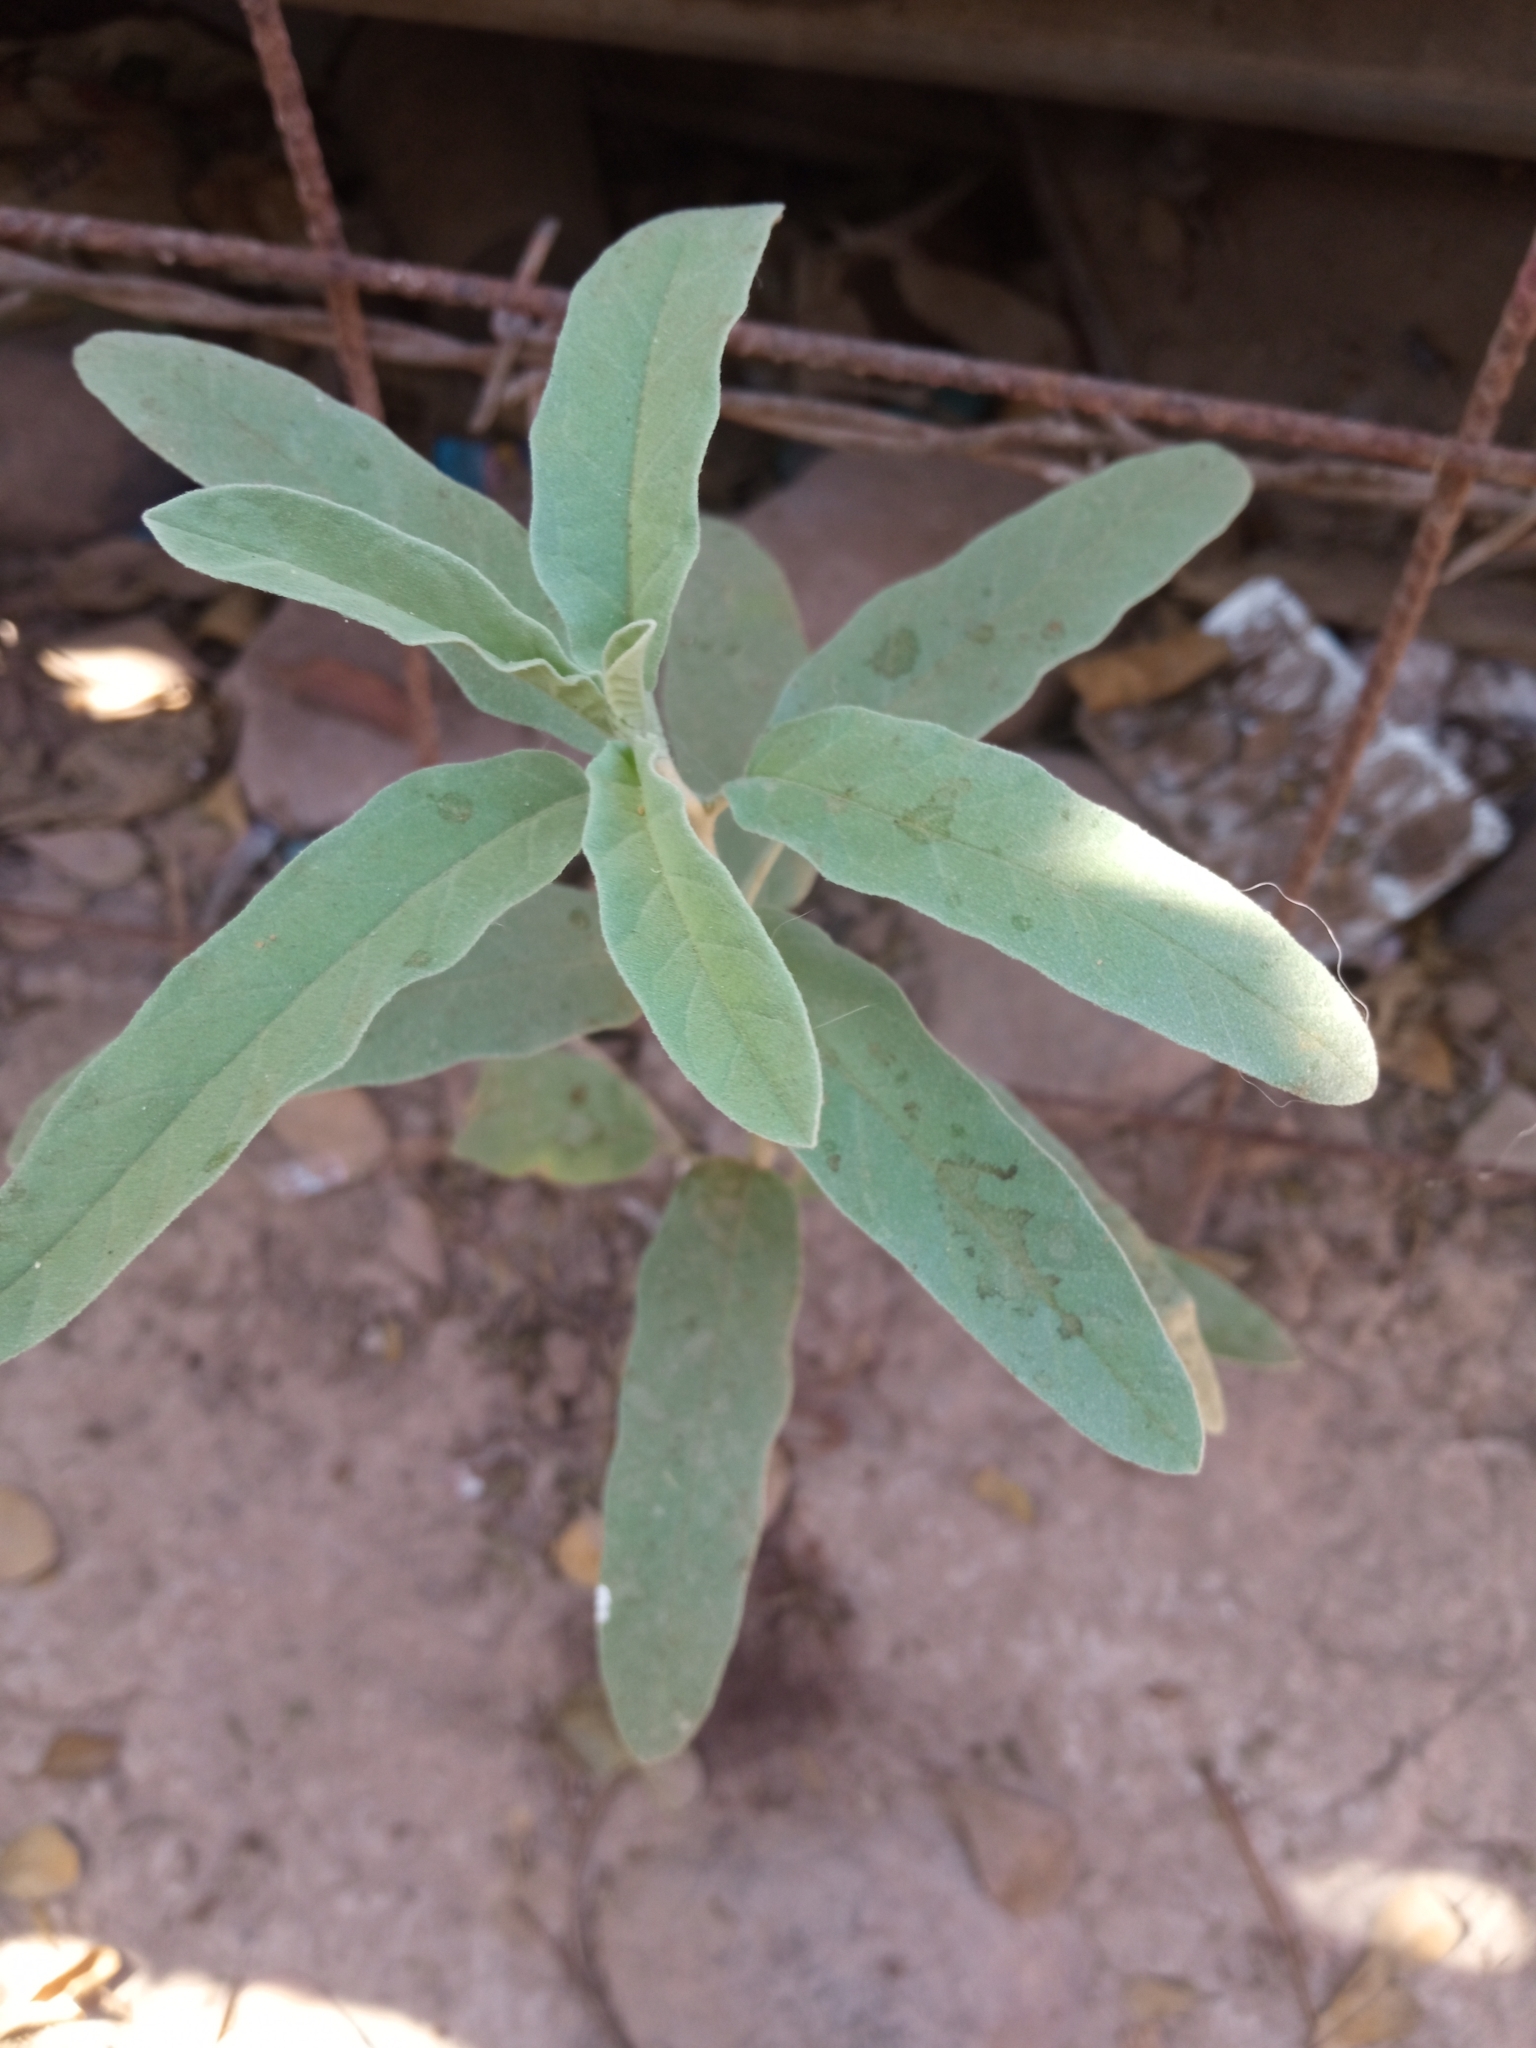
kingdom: Plantae
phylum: Tracheophyta
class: Magnoliopsida
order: Solanales
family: Solanaceae
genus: Solanum
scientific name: Solanum elaeagnifolium
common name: Silverleaf nightshade
